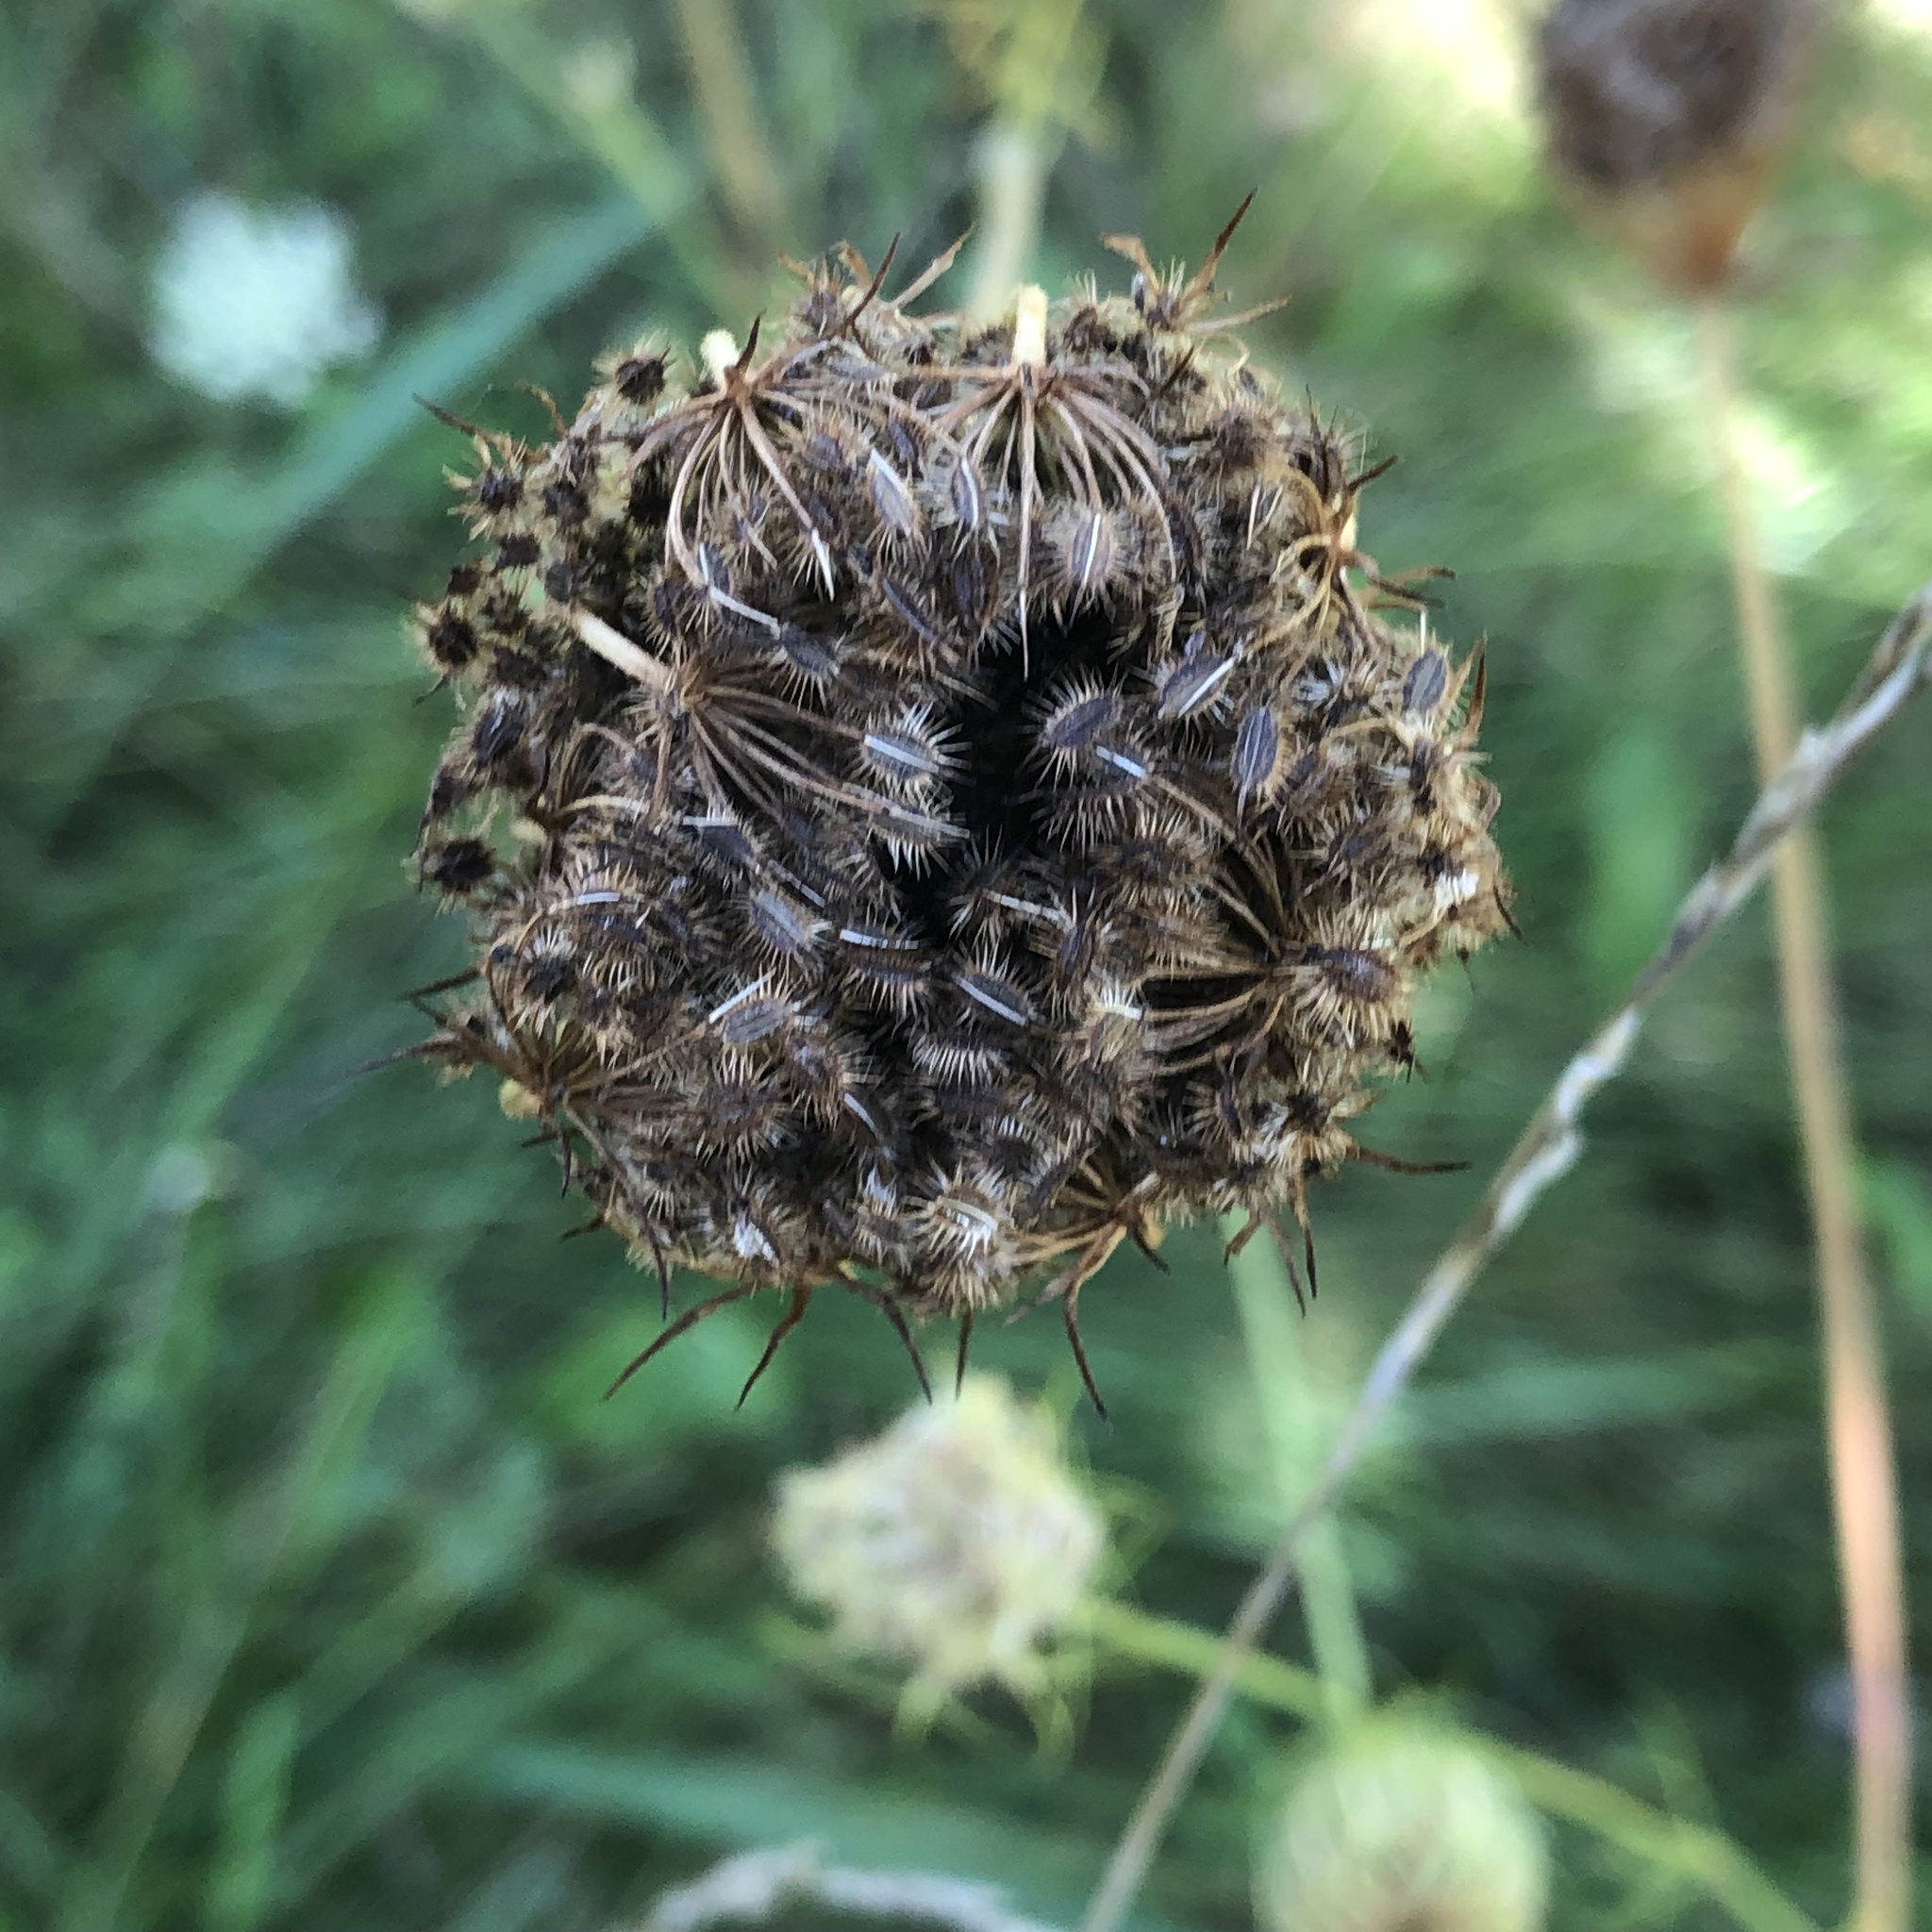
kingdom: Plantae
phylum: Tracheophyta
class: Magnoliopsida
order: Apiales
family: Apiaceae
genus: Daucus
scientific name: Daucus carota
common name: Wild carrot
